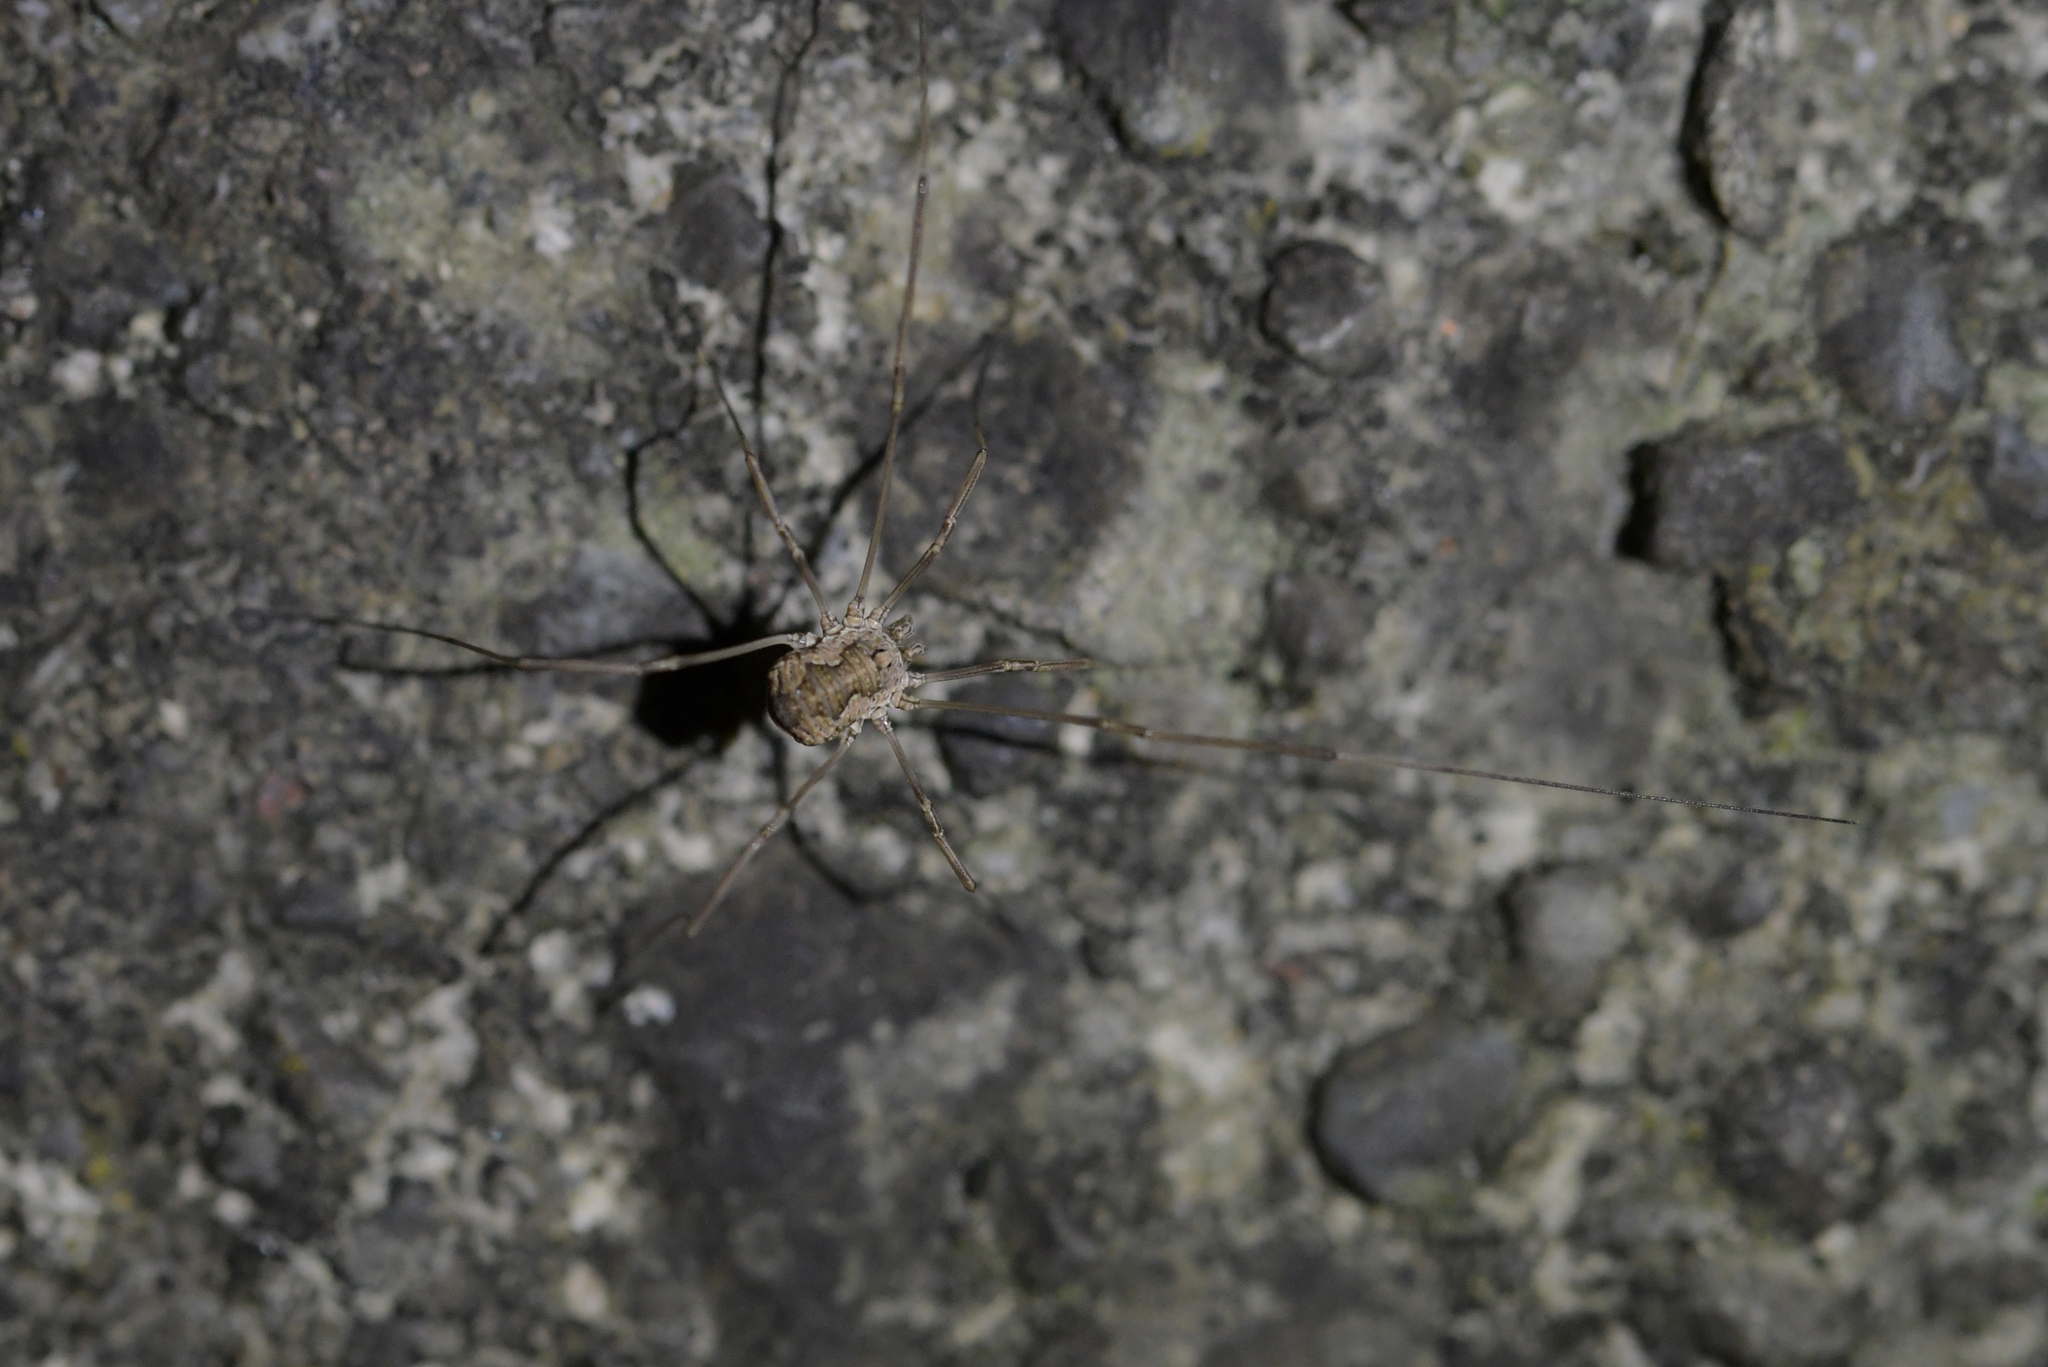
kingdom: Animalia
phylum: Arthropoda
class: Arachnida
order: Opiliones
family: Phalangiidae
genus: Phalangium
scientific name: Phalangium opilio
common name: Daddy longleg
